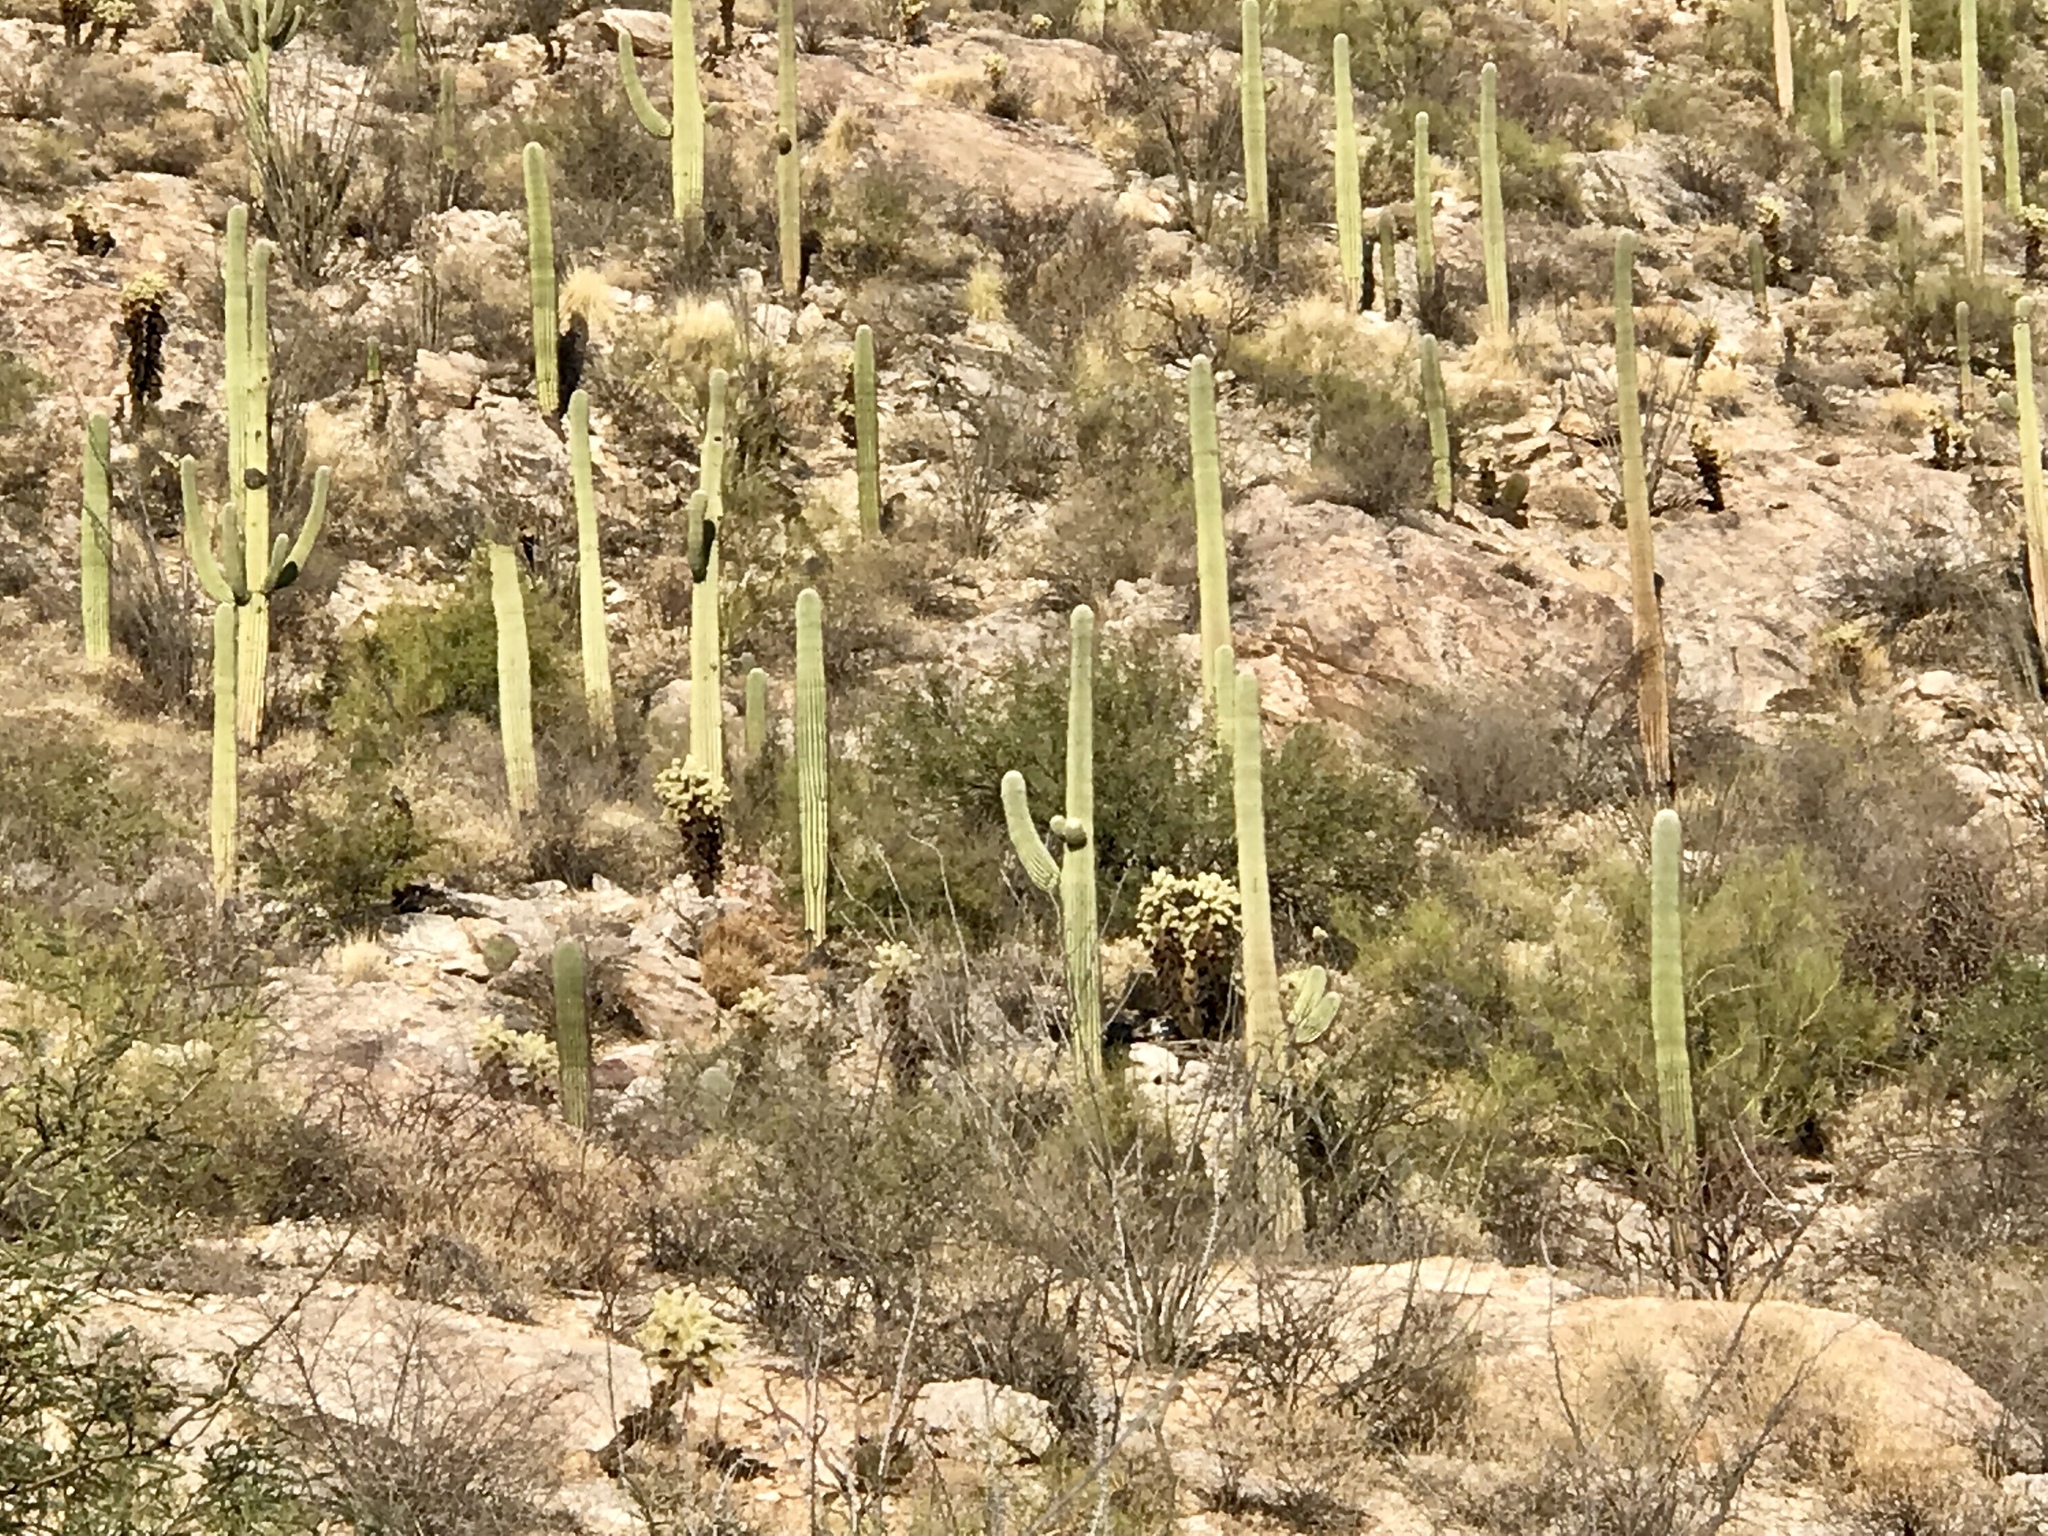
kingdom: Plantae
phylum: Tracheophyta
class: Magnoliopsida
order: Caryophyllales
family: Cactaceae
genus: Carnegiea
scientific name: Carnegiea gigantea
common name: Saguaro
